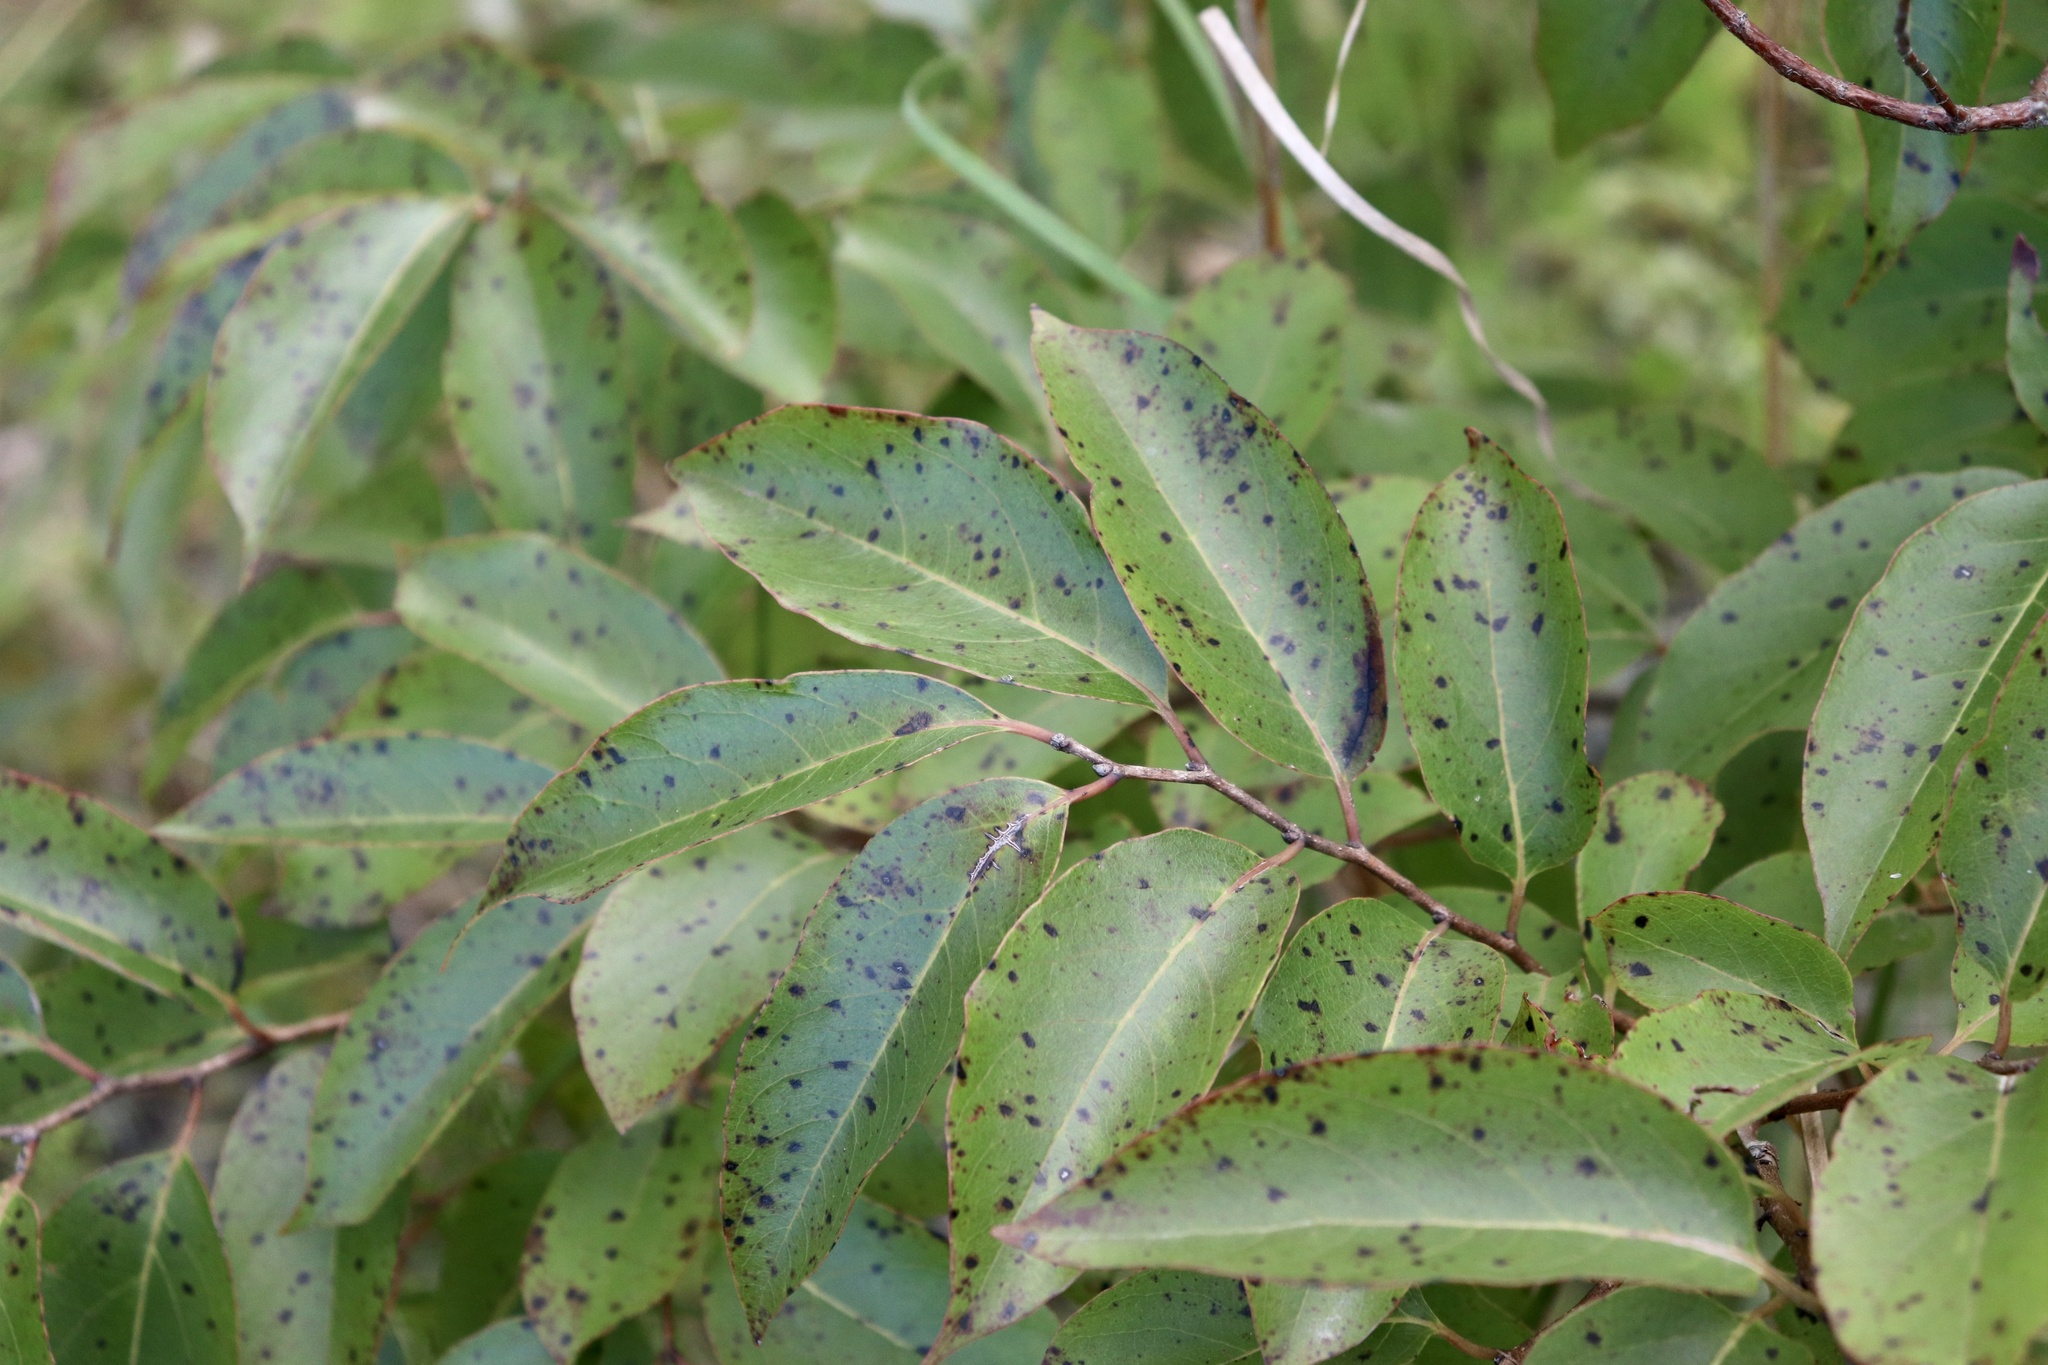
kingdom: Plantae
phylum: Tracheophyta
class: Magnoliopsida
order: Ericales
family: Ebenaceae
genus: Diospyros
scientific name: Diospyros virginiana
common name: Persimmon
